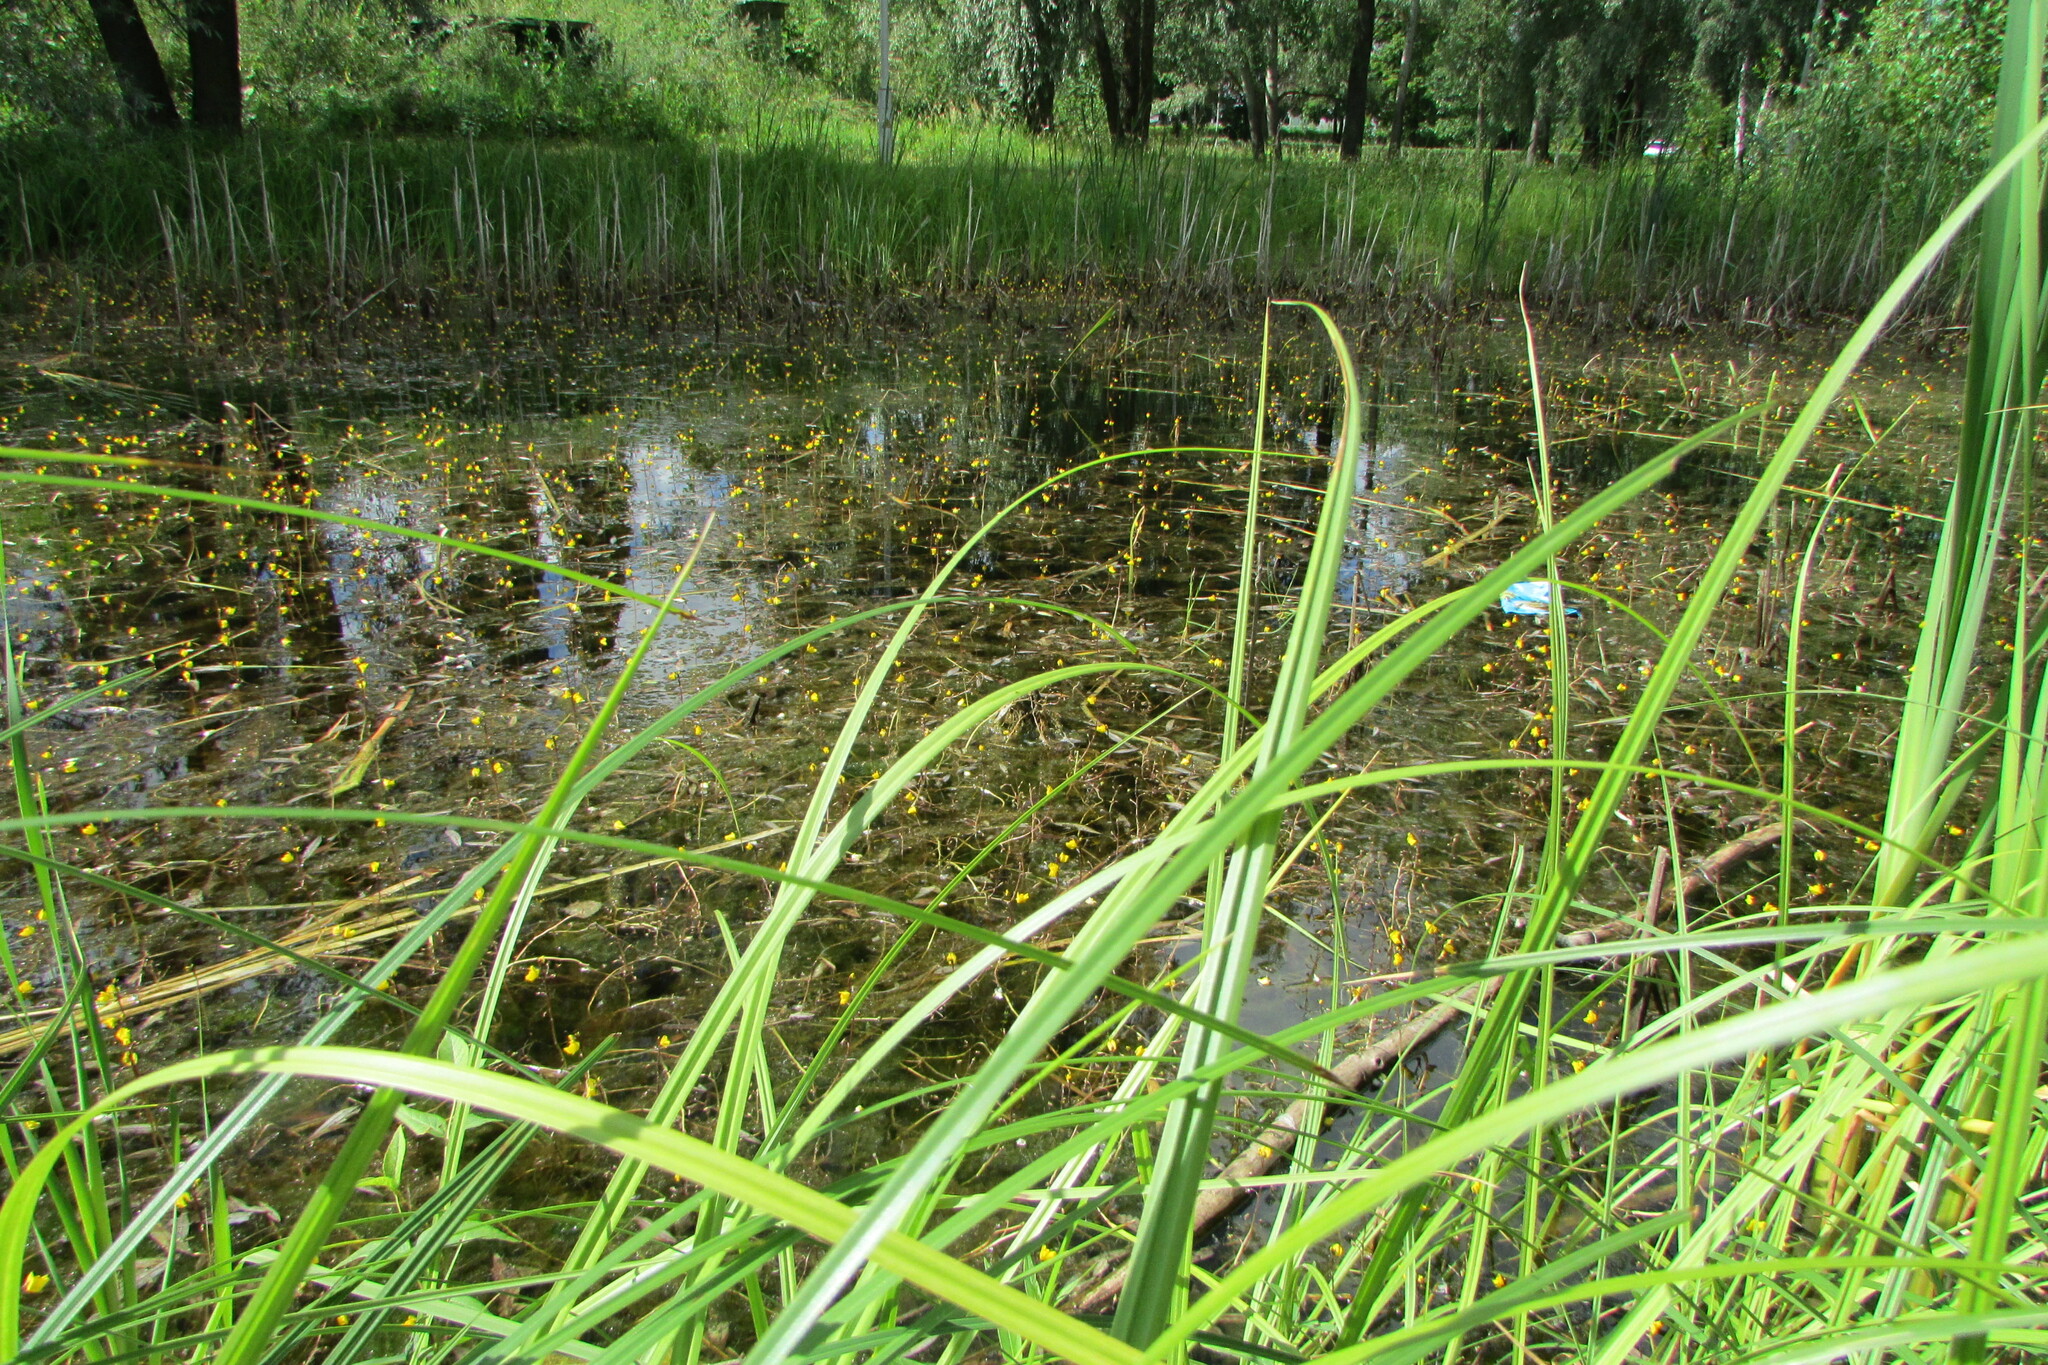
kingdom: Plantae
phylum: Tracheophyta
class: Magnoliopsida
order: Lamiales
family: Lentibulariaceae
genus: Utricularia
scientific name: Utricularia vulgaris
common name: Greater bladderwort
